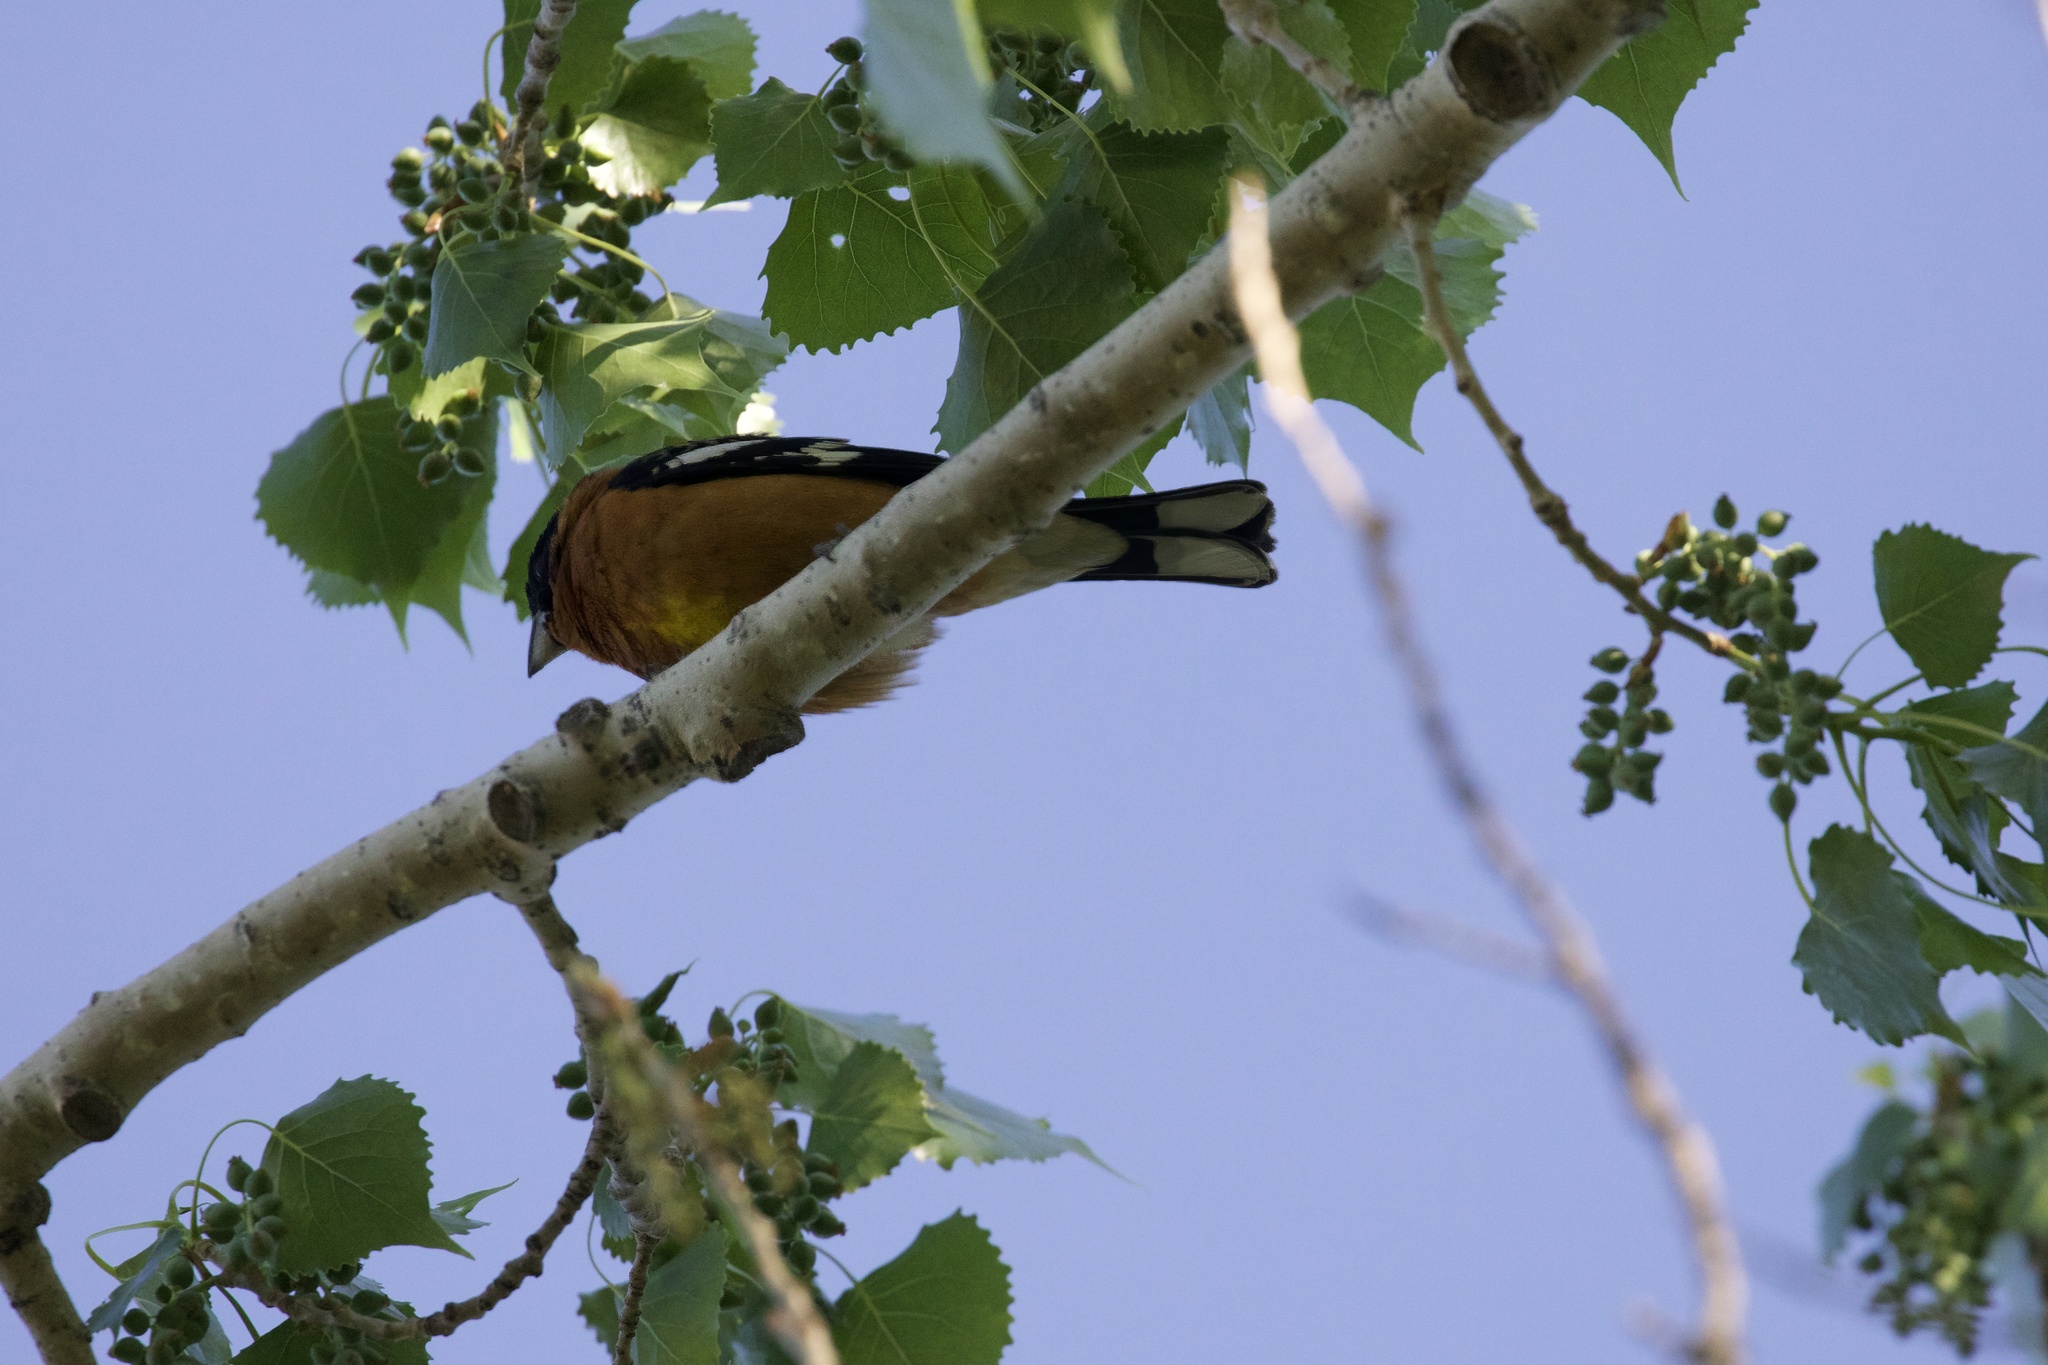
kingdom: Animalia
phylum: Chordata
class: Aves
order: Passeriformes
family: Cardinalidae
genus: Pheucticus
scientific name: Pheucticus melanocephalus
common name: Black-headed grosbeak
